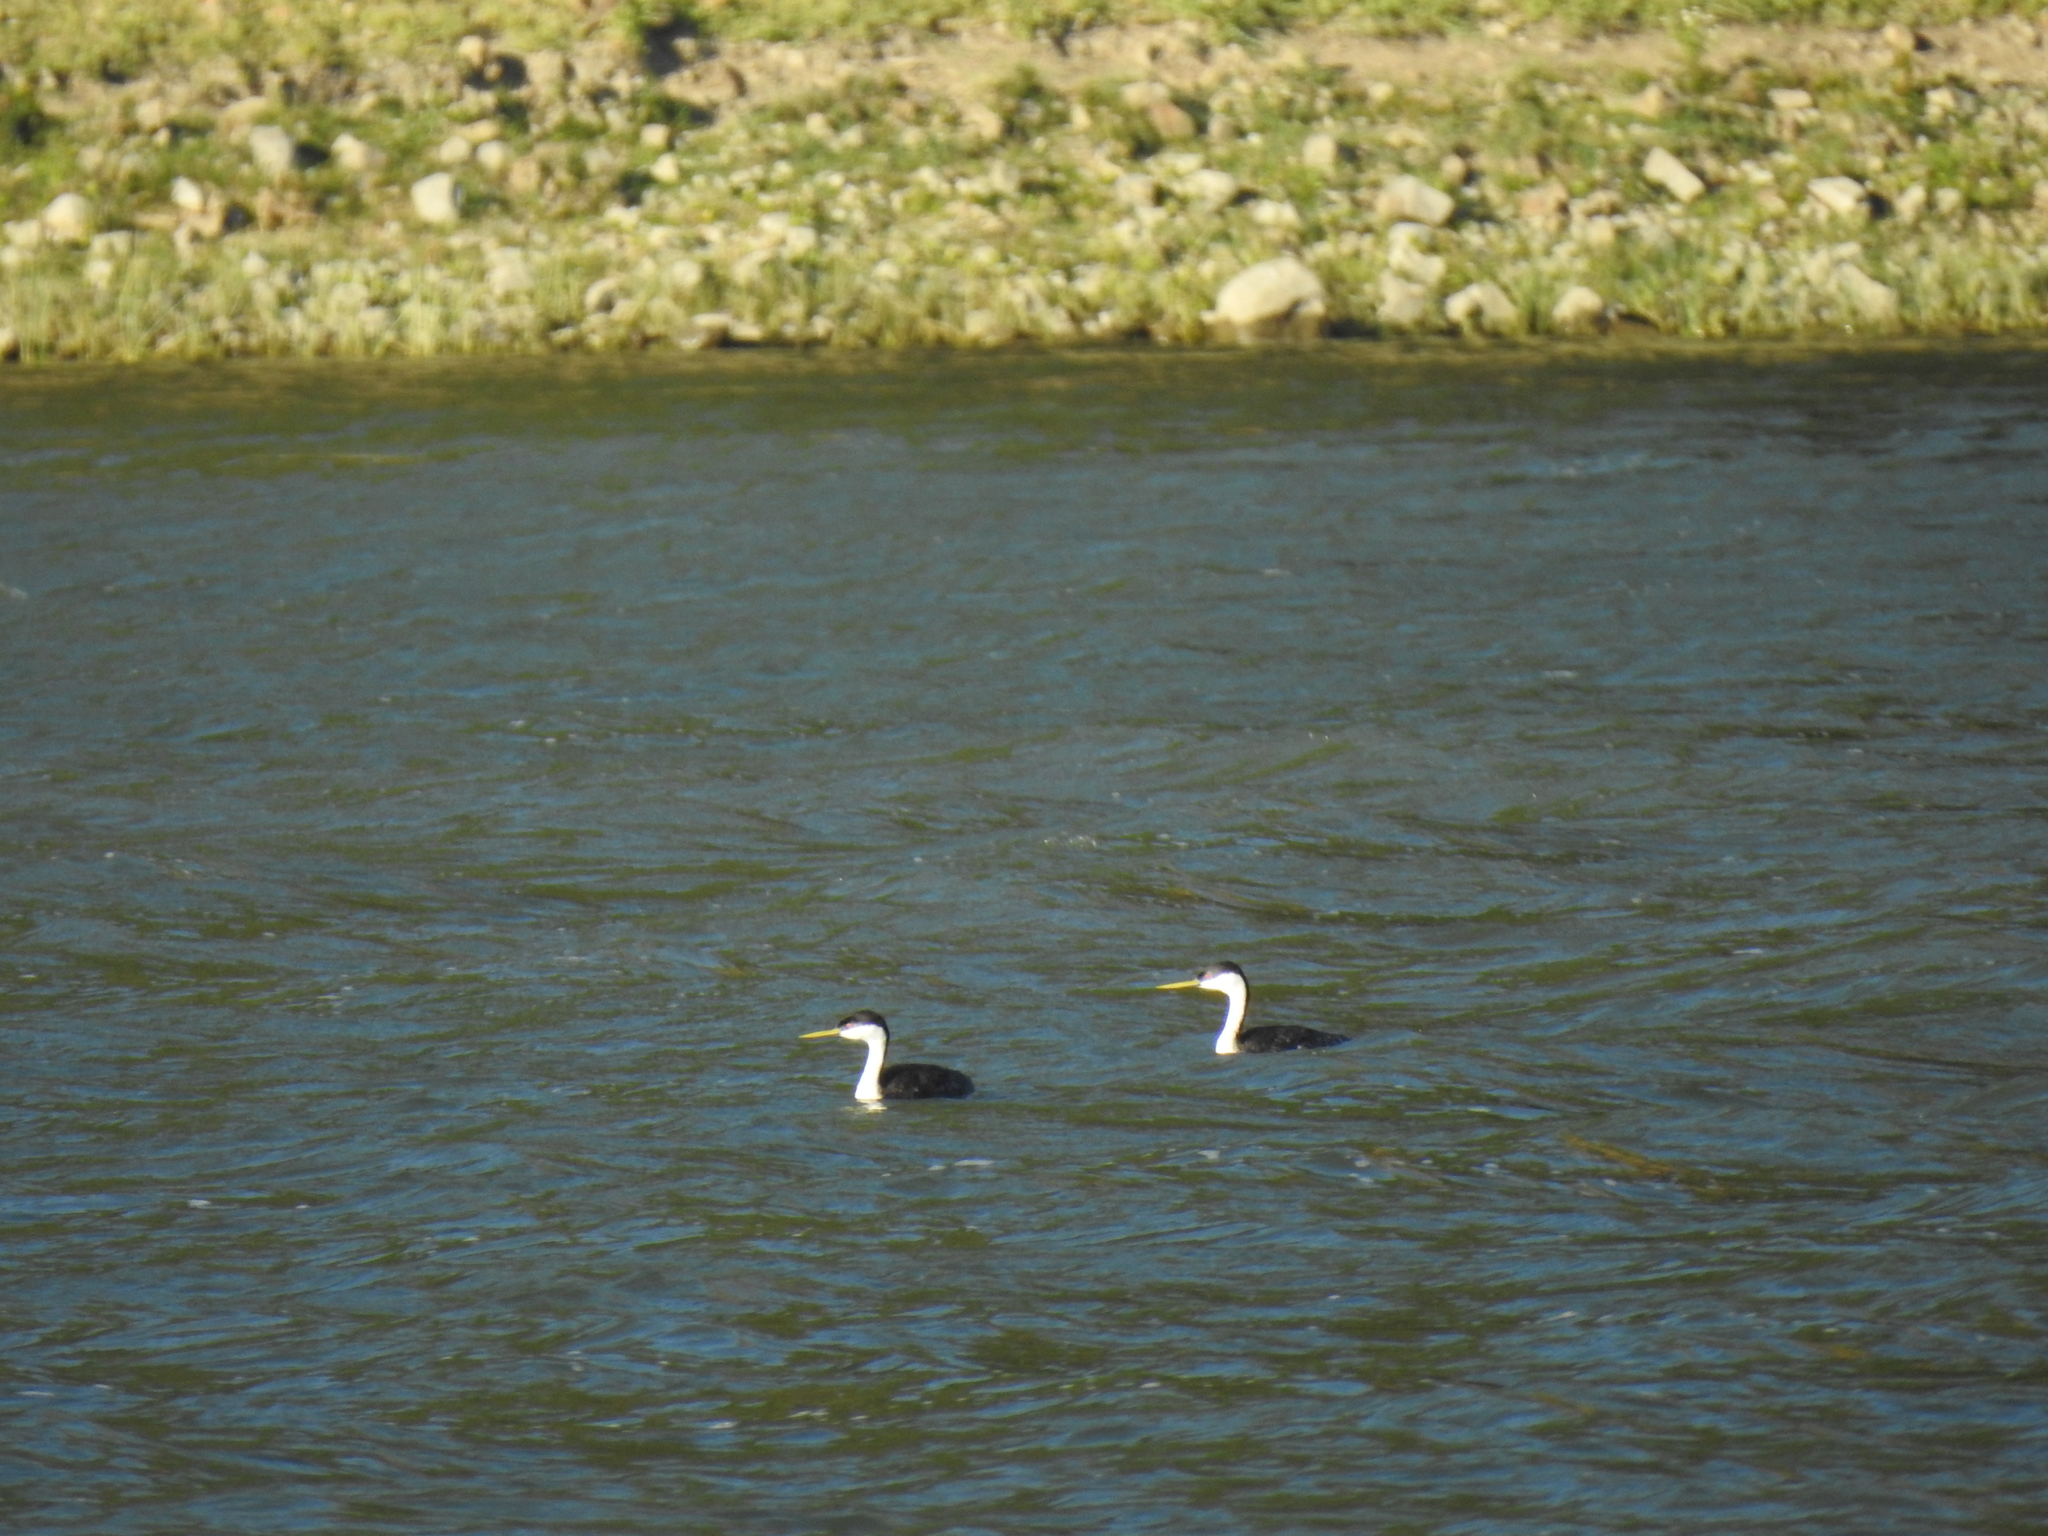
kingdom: Animalia
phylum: Chordata
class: Aves
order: Podicipediformes
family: Podicipedidae
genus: Aechmophorus
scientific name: Aechmophorus occidentalis
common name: Western grebe
